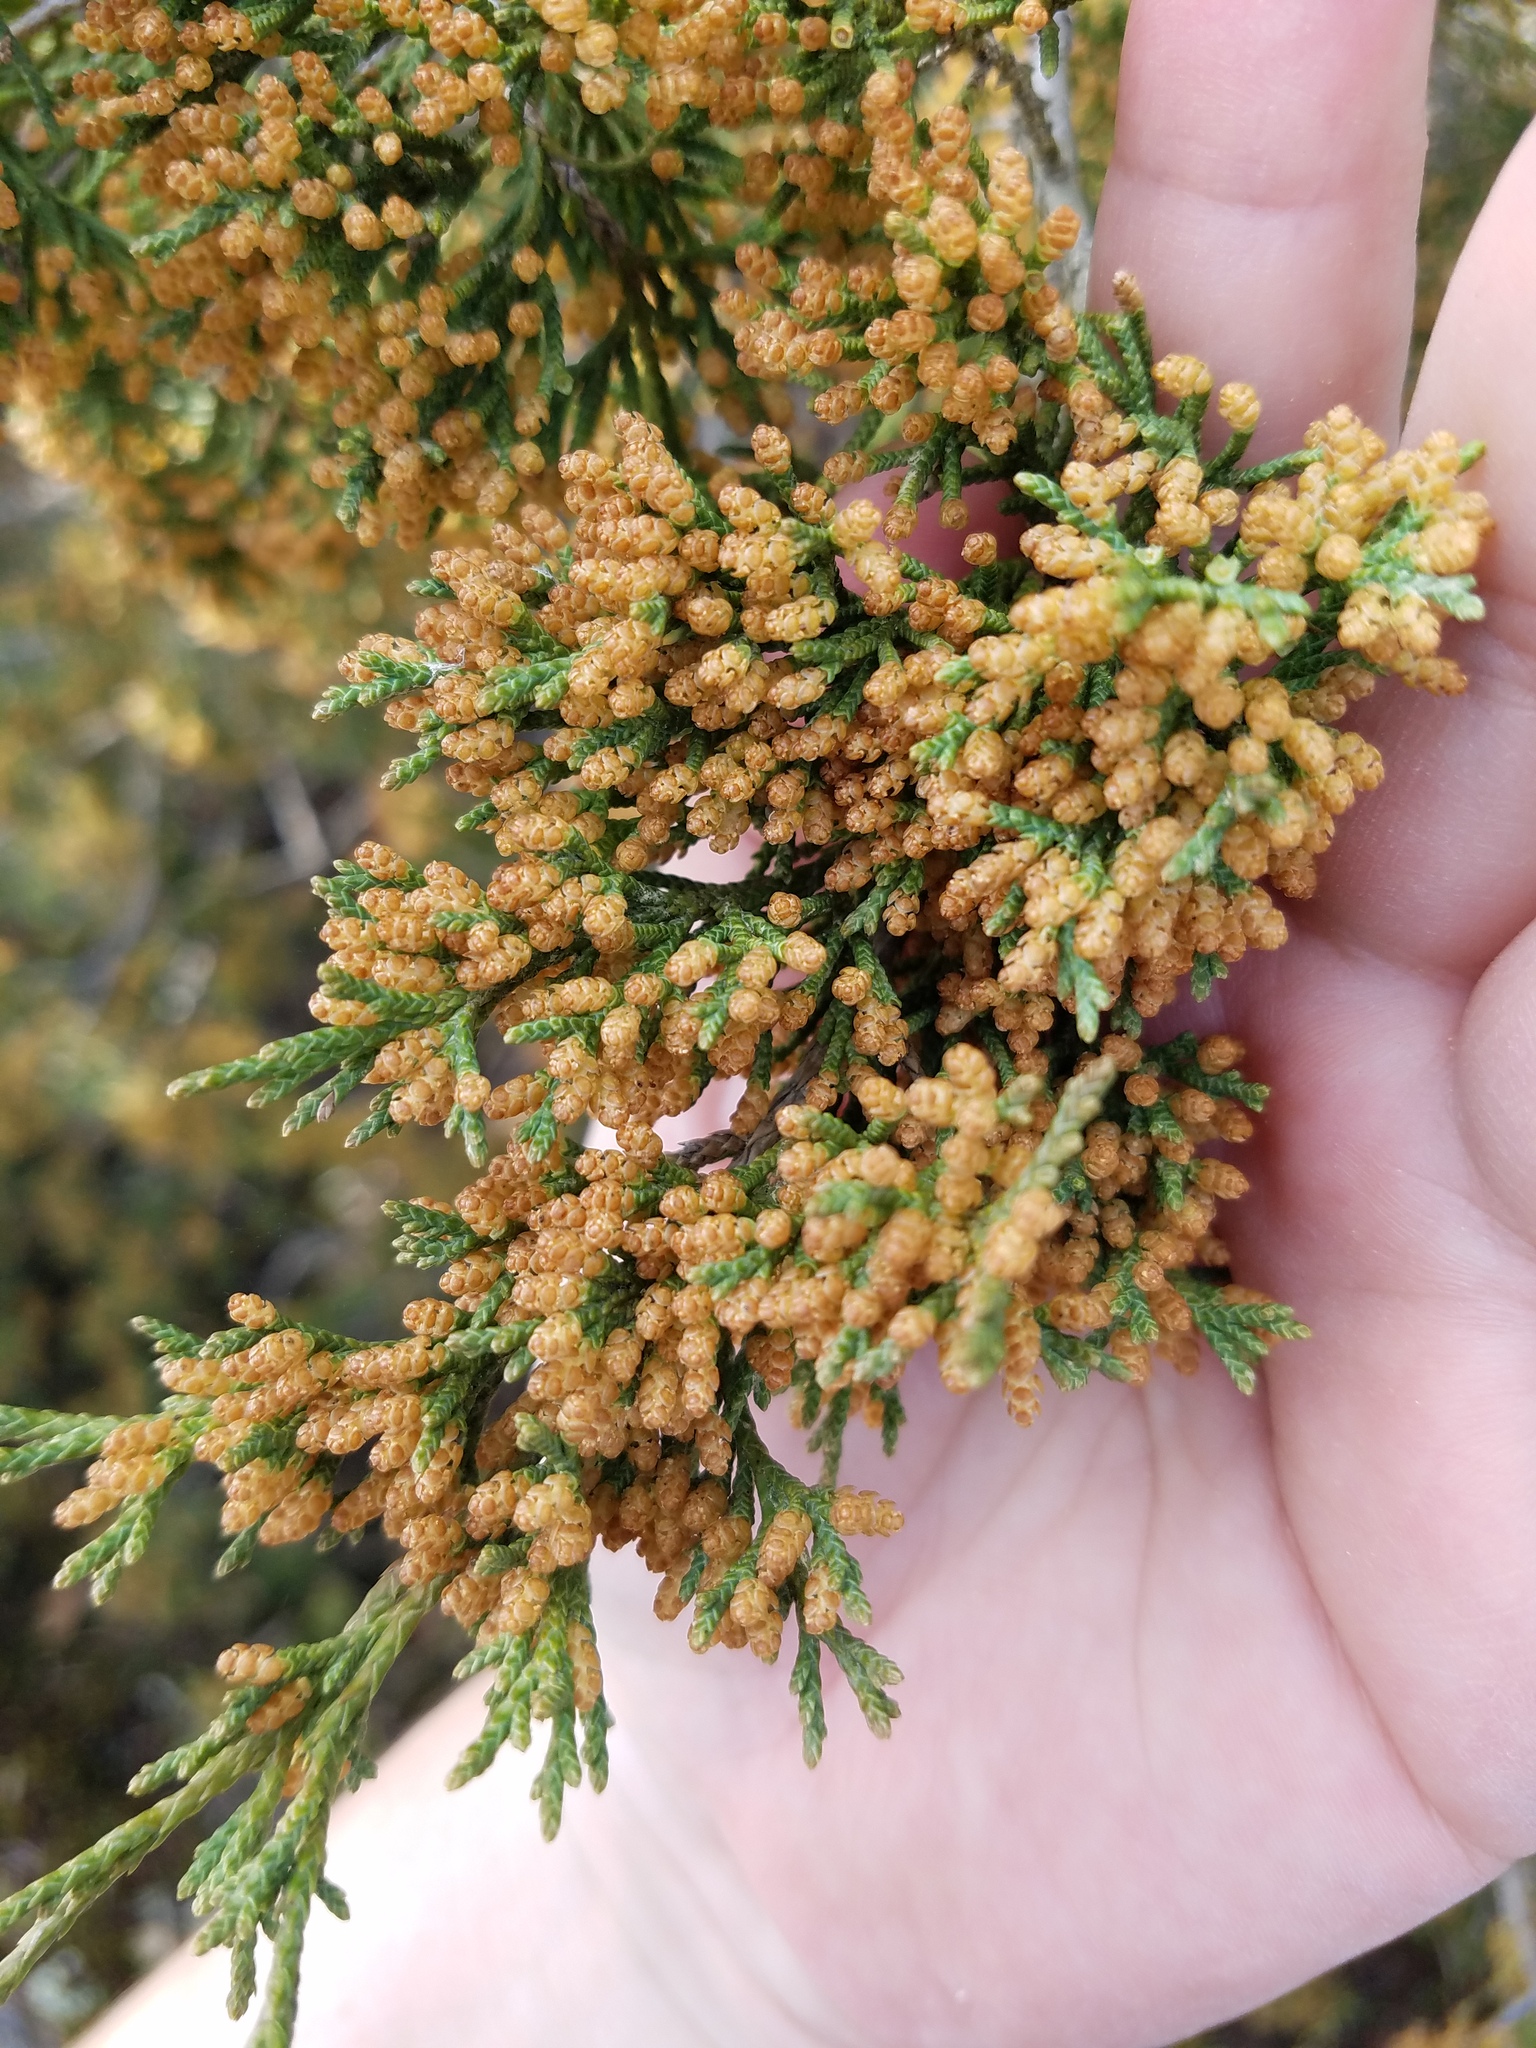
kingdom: Plantae
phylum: Tracheophyta
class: Pinopsida
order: Pinales
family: Cupressaceae
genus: Juniperus
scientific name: Juniperus virginiana
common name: Red juniper
